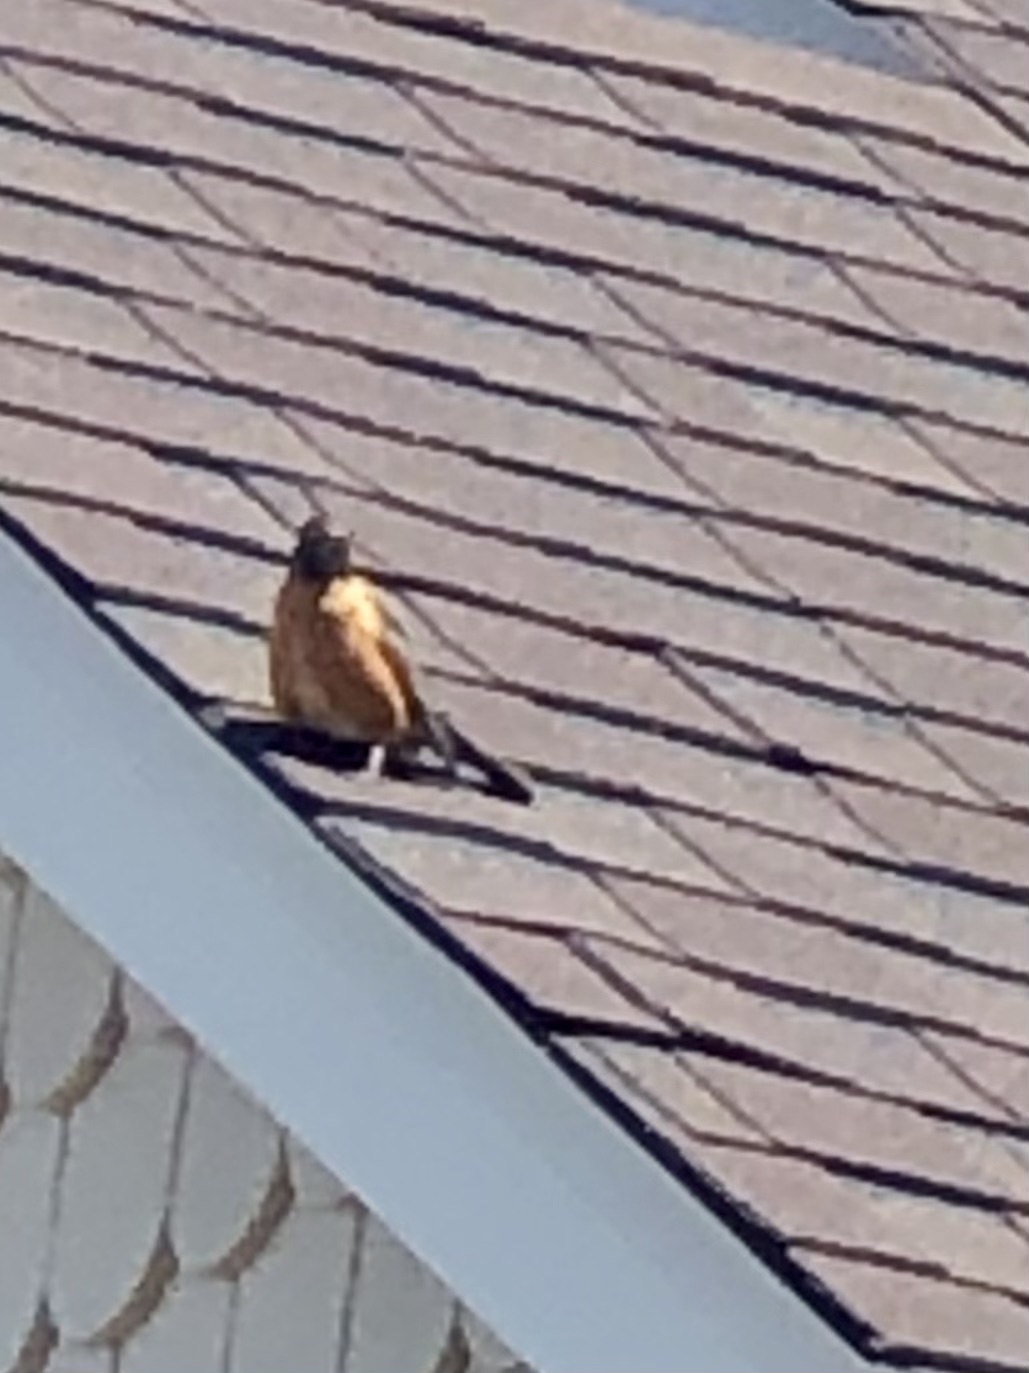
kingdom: Animalia
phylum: Chordata
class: Aves
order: Passeriformes
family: Turdidae
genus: Turdus
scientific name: Turdus migratorius
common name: American robin
